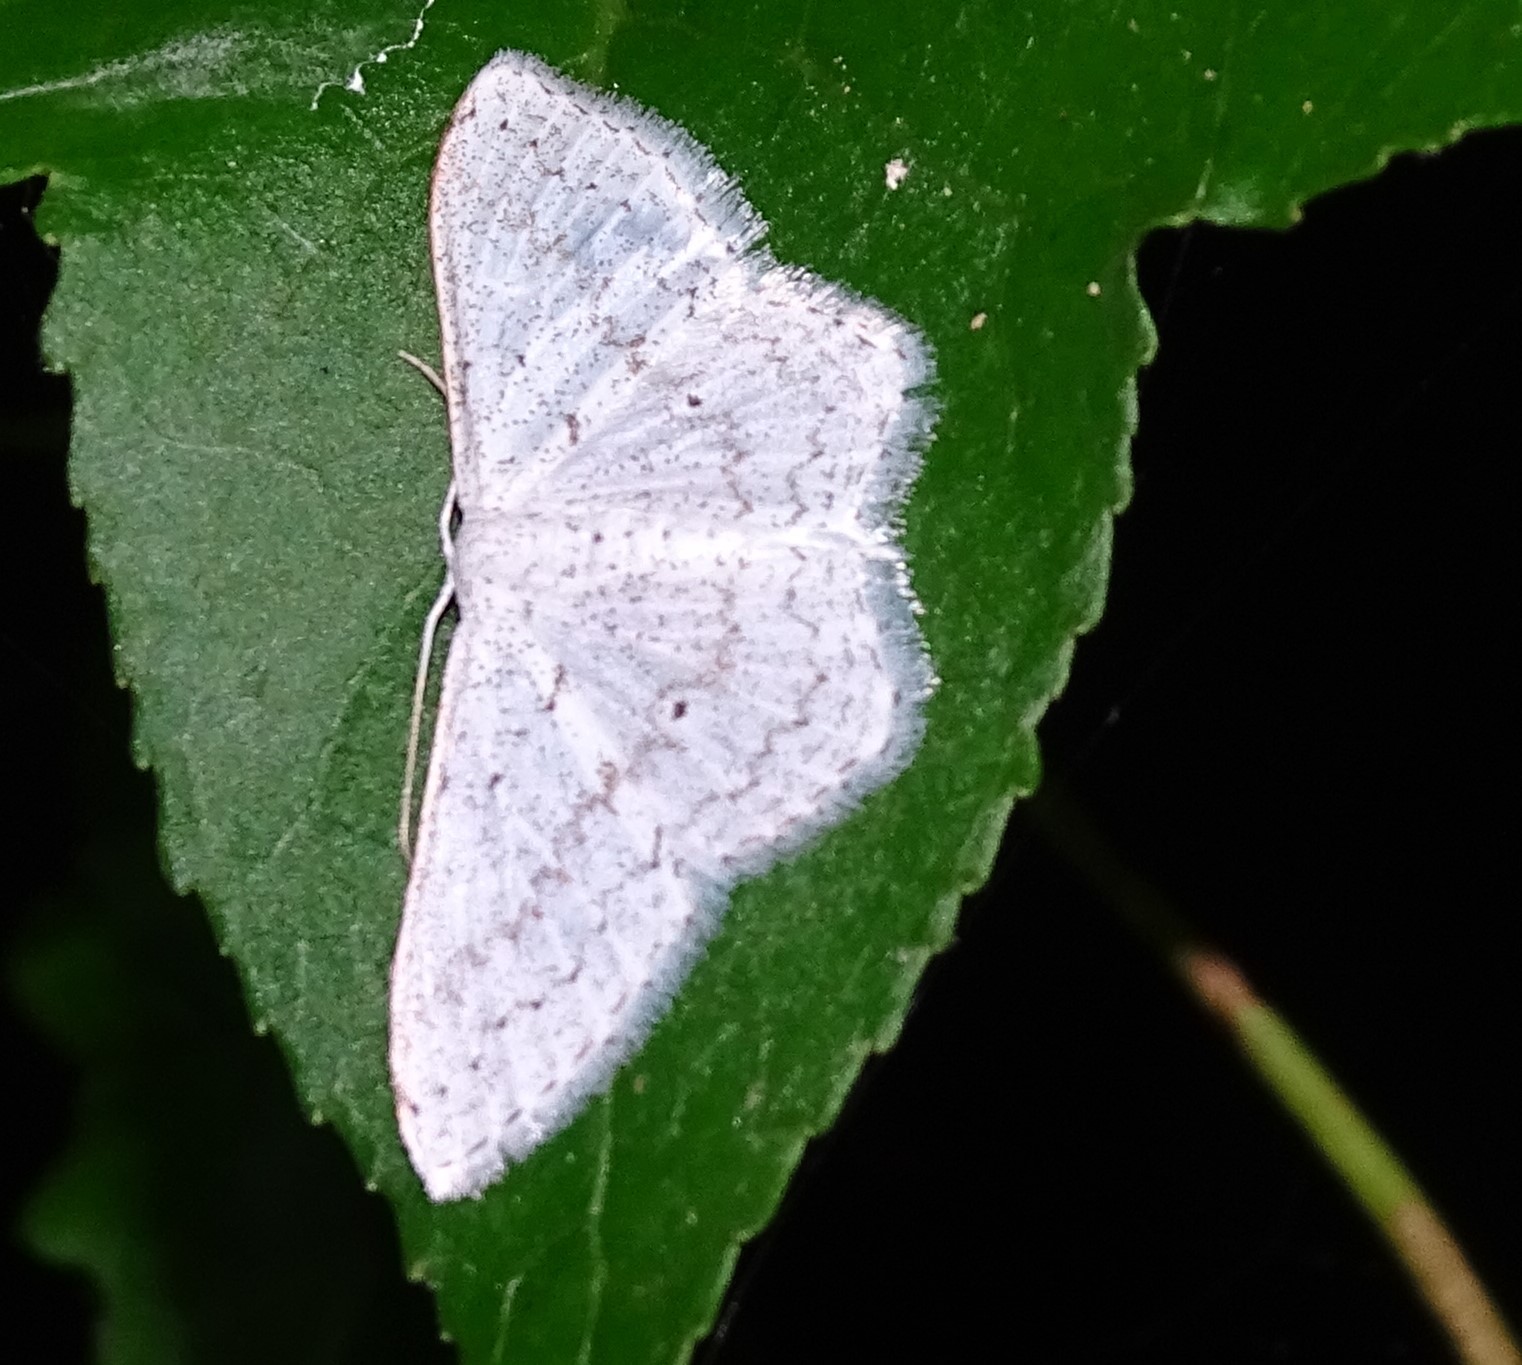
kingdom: Animalia
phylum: Arthropoda
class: Insecta
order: Lepidoptera
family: Geometridae
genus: Idaea
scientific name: Idaea tacturata
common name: Dot-lined wave
